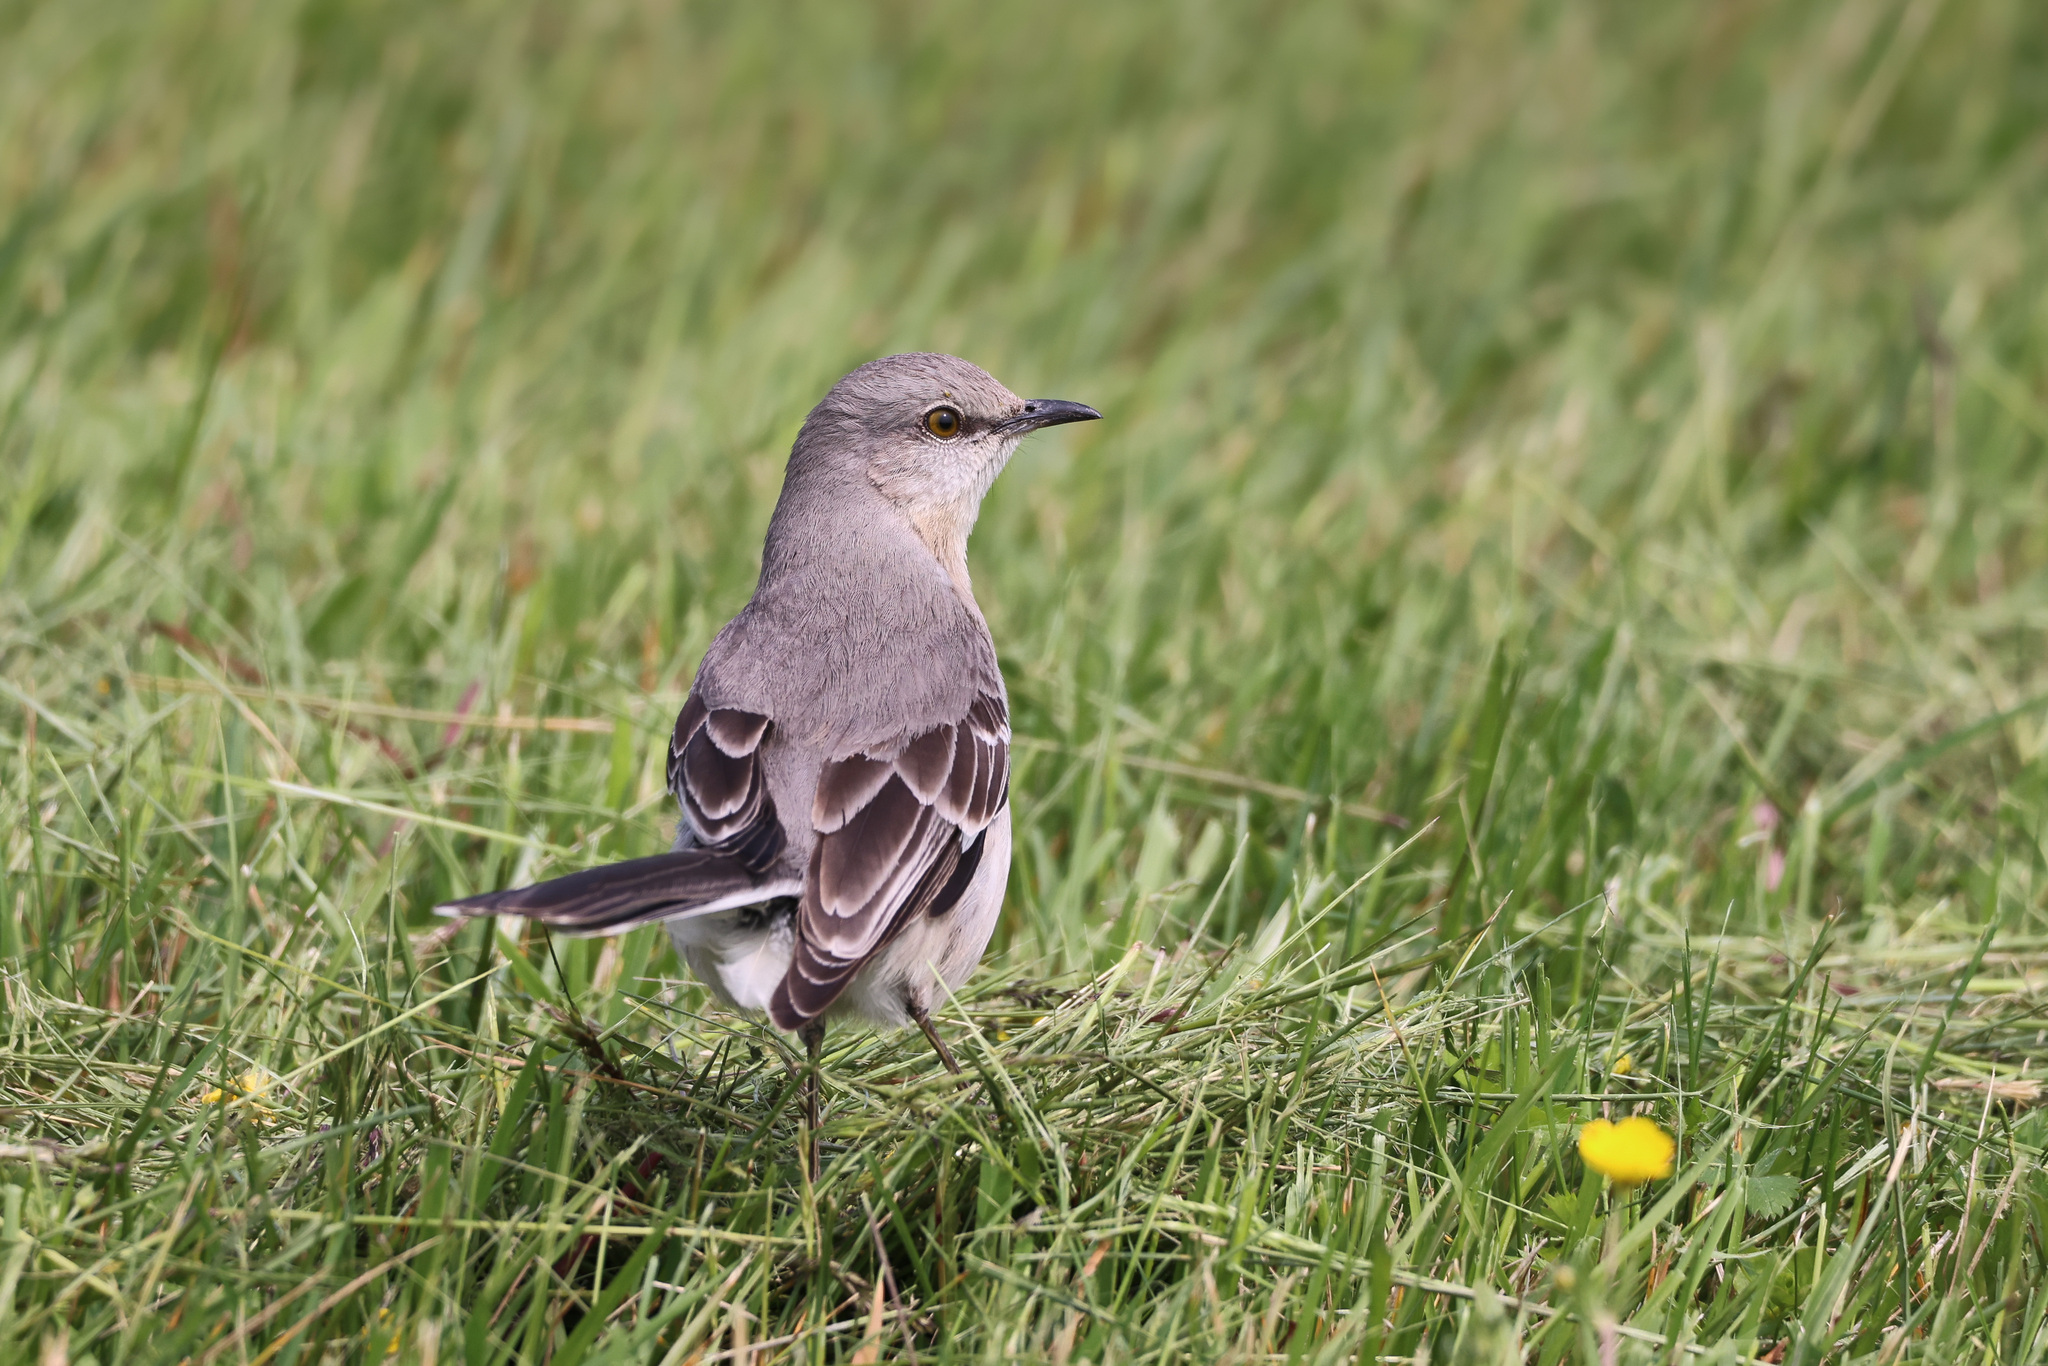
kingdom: Animalia
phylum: Chordata
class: Aves
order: Passeriformes
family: Mimidae
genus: Mimus
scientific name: Mimus polyglottos
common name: Northern mockingbird
